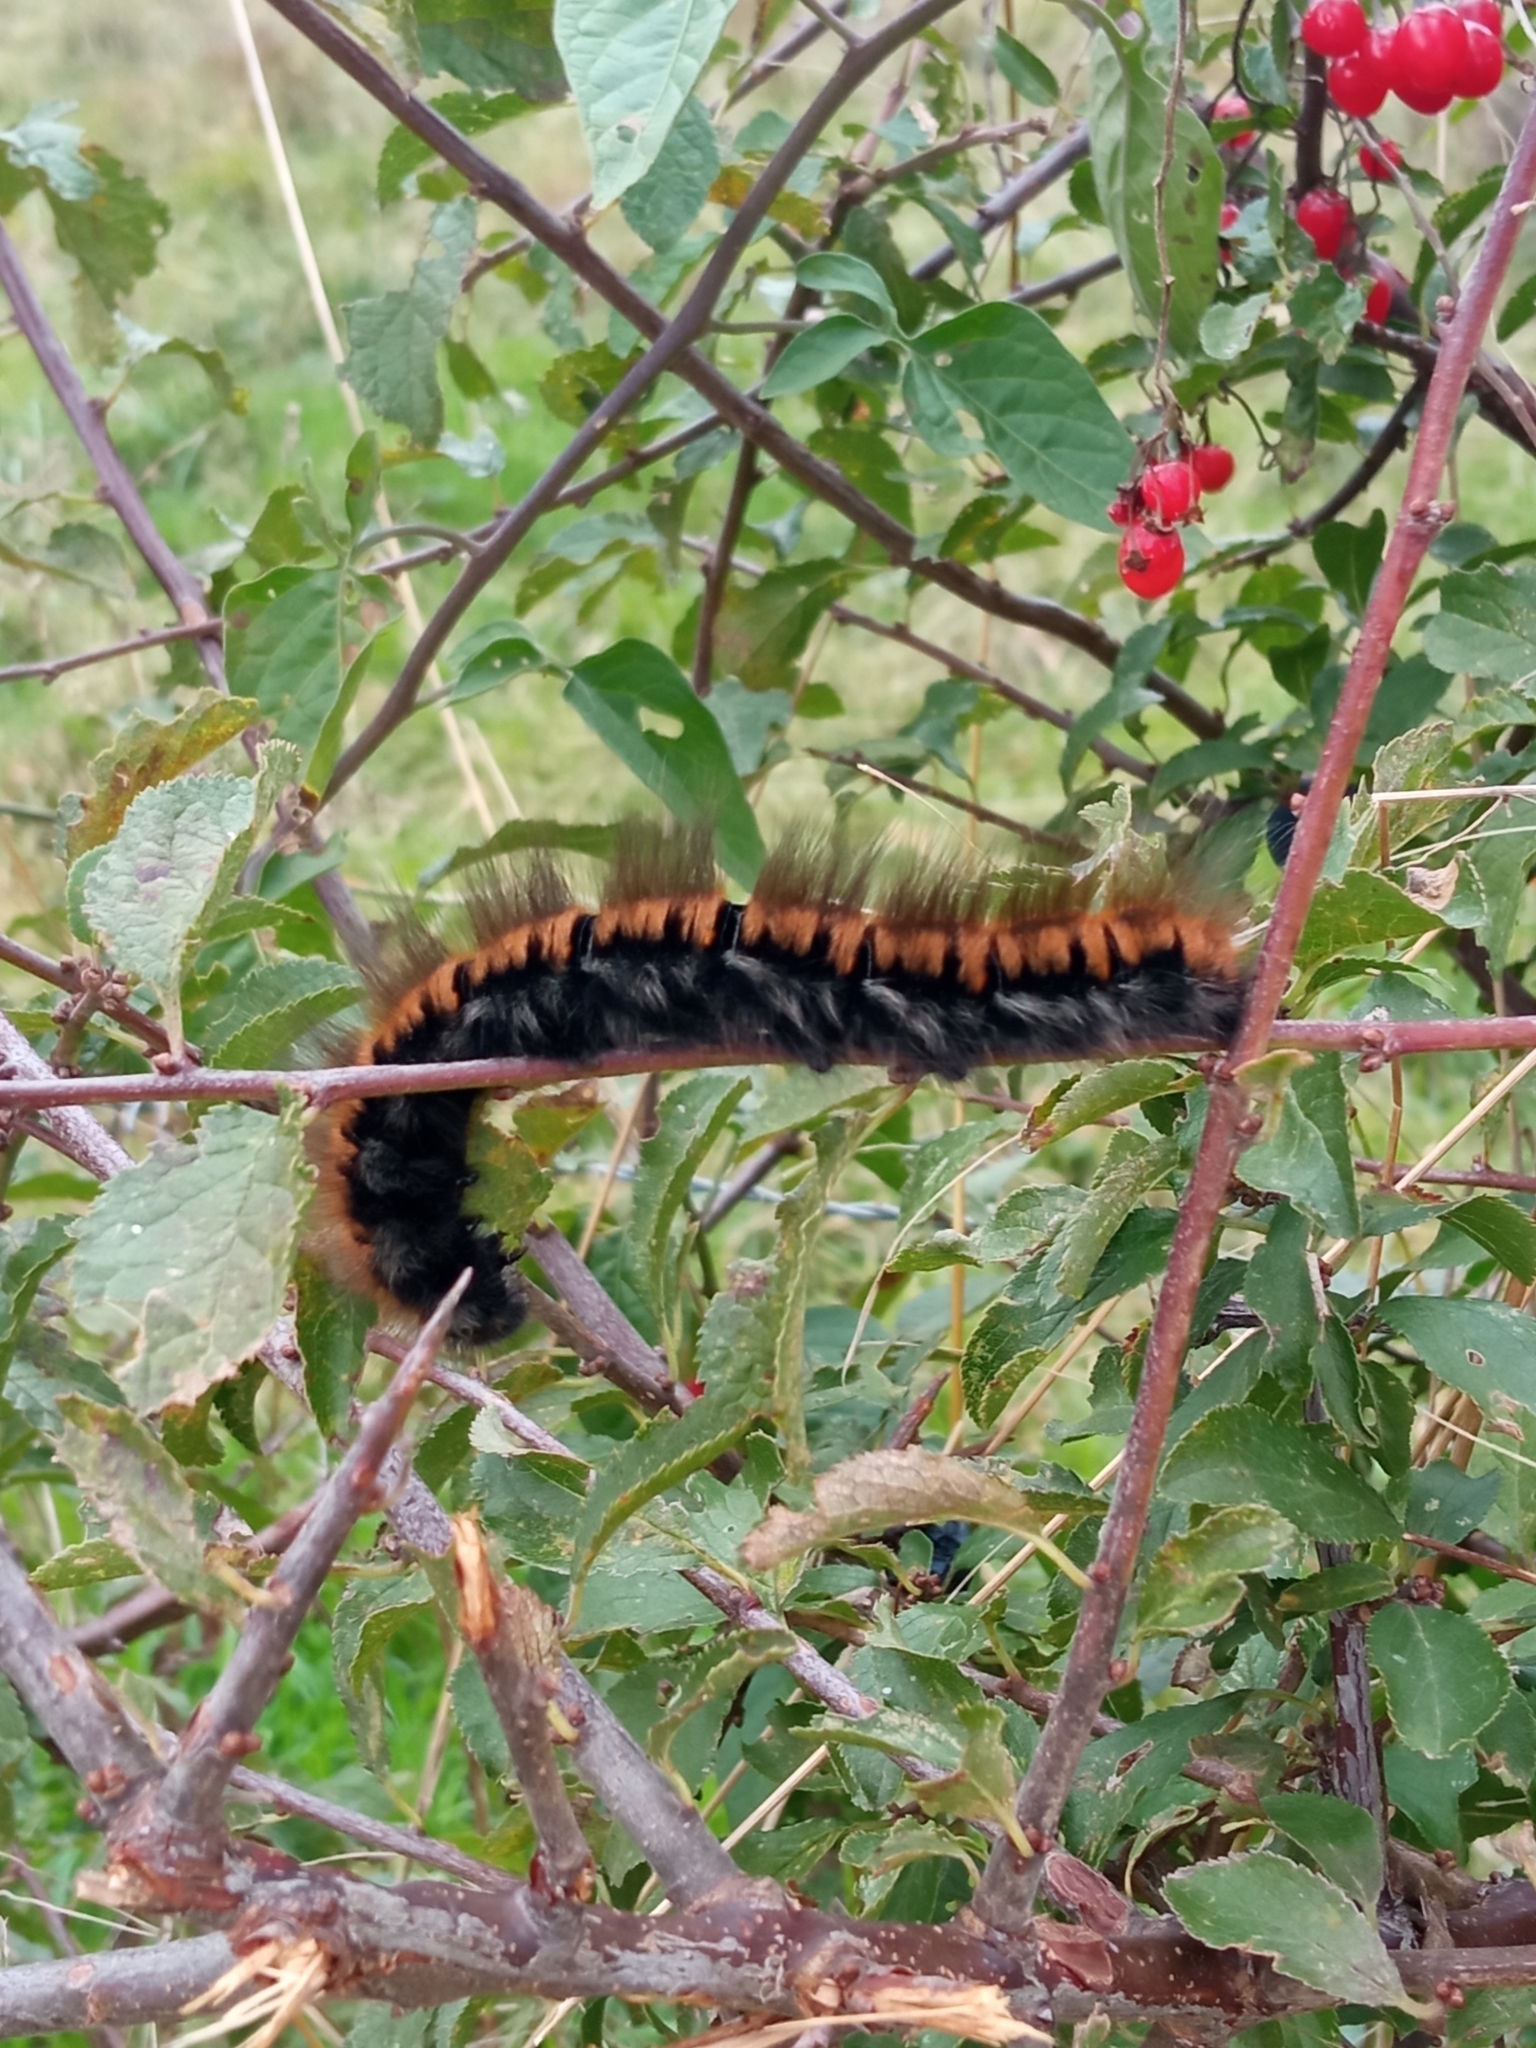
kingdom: Animalia
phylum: Arthropoda
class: Insecta
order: Lepidoptera
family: Lasiocampidae
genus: Macrothylacia
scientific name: Macrothylacia rubi
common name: Fox moth
